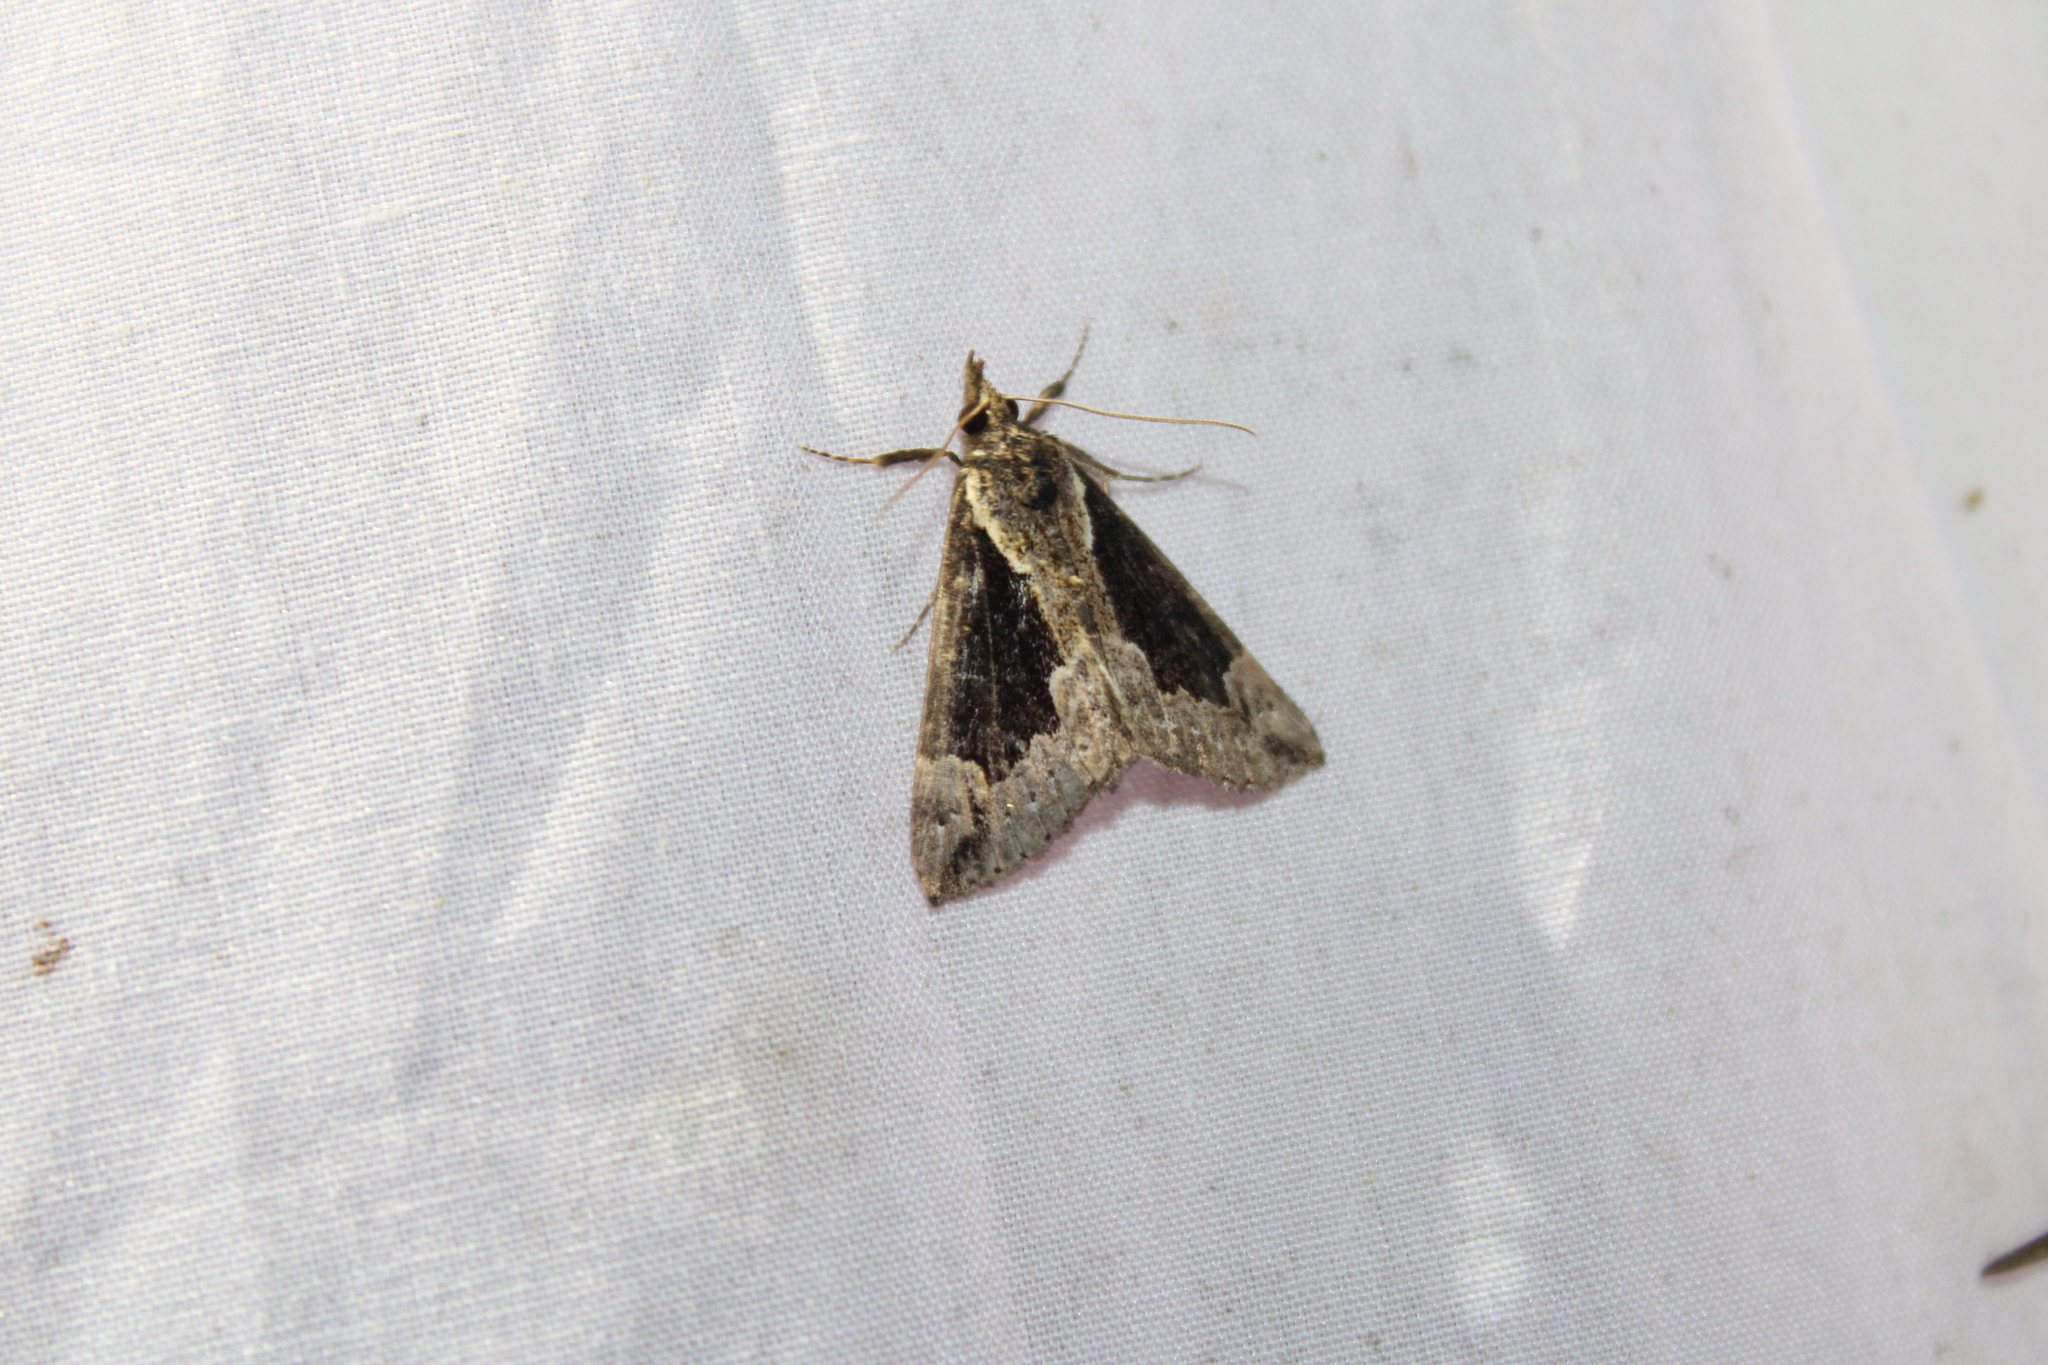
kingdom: Animalia
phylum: Arthropoda
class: Insecta
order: Lepidoptera
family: Erebidae
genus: Hypena
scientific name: Hypena baltimoralis
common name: Baltimore snout
